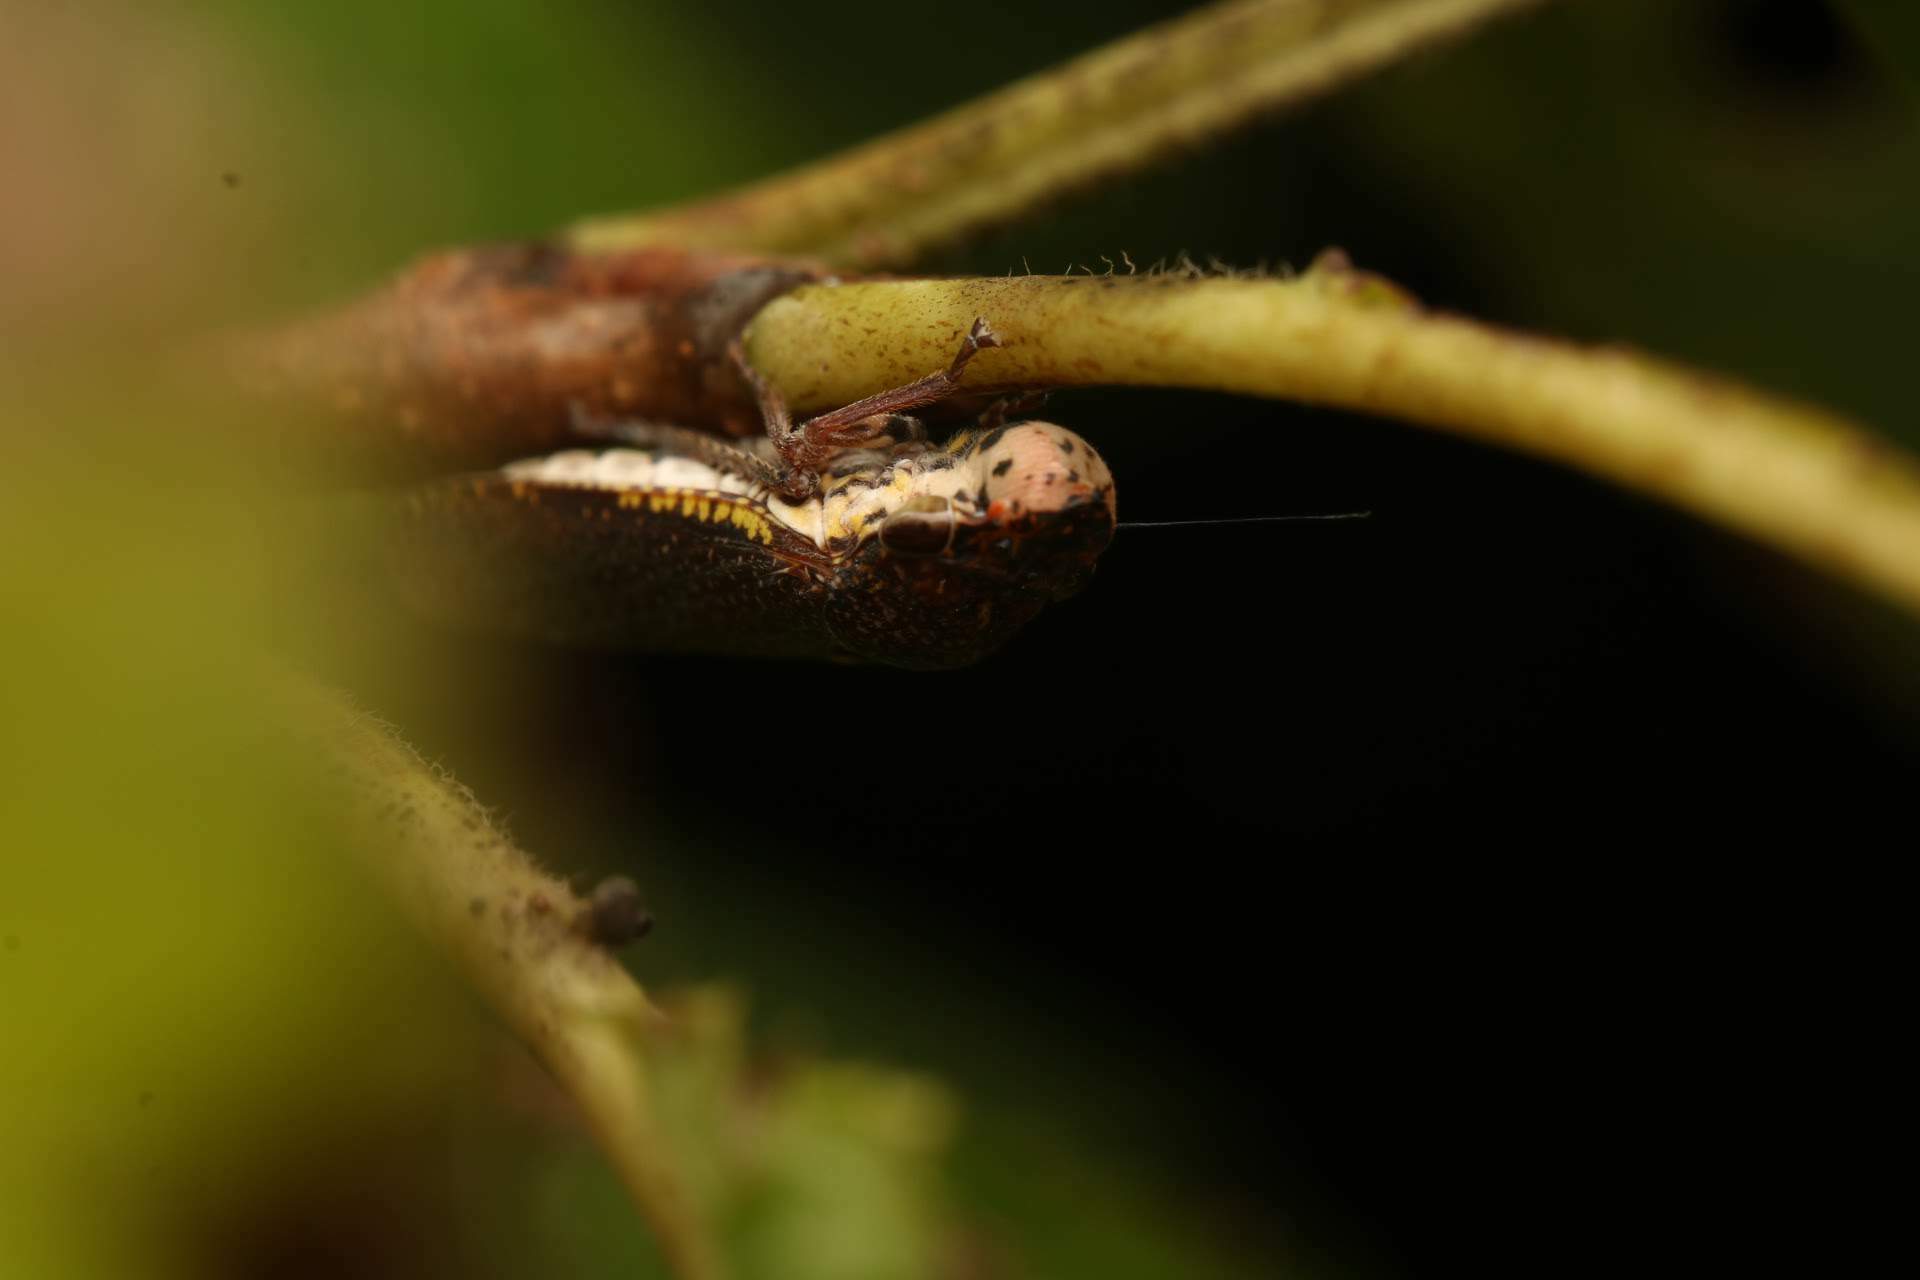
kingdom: Animalia
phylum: Arthropoda
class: Insecta
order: Hemiptera
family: Cicadellidae
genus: Paraulacizes
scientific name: Paraulacizes irrorata
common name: Speckled sharpshooter
